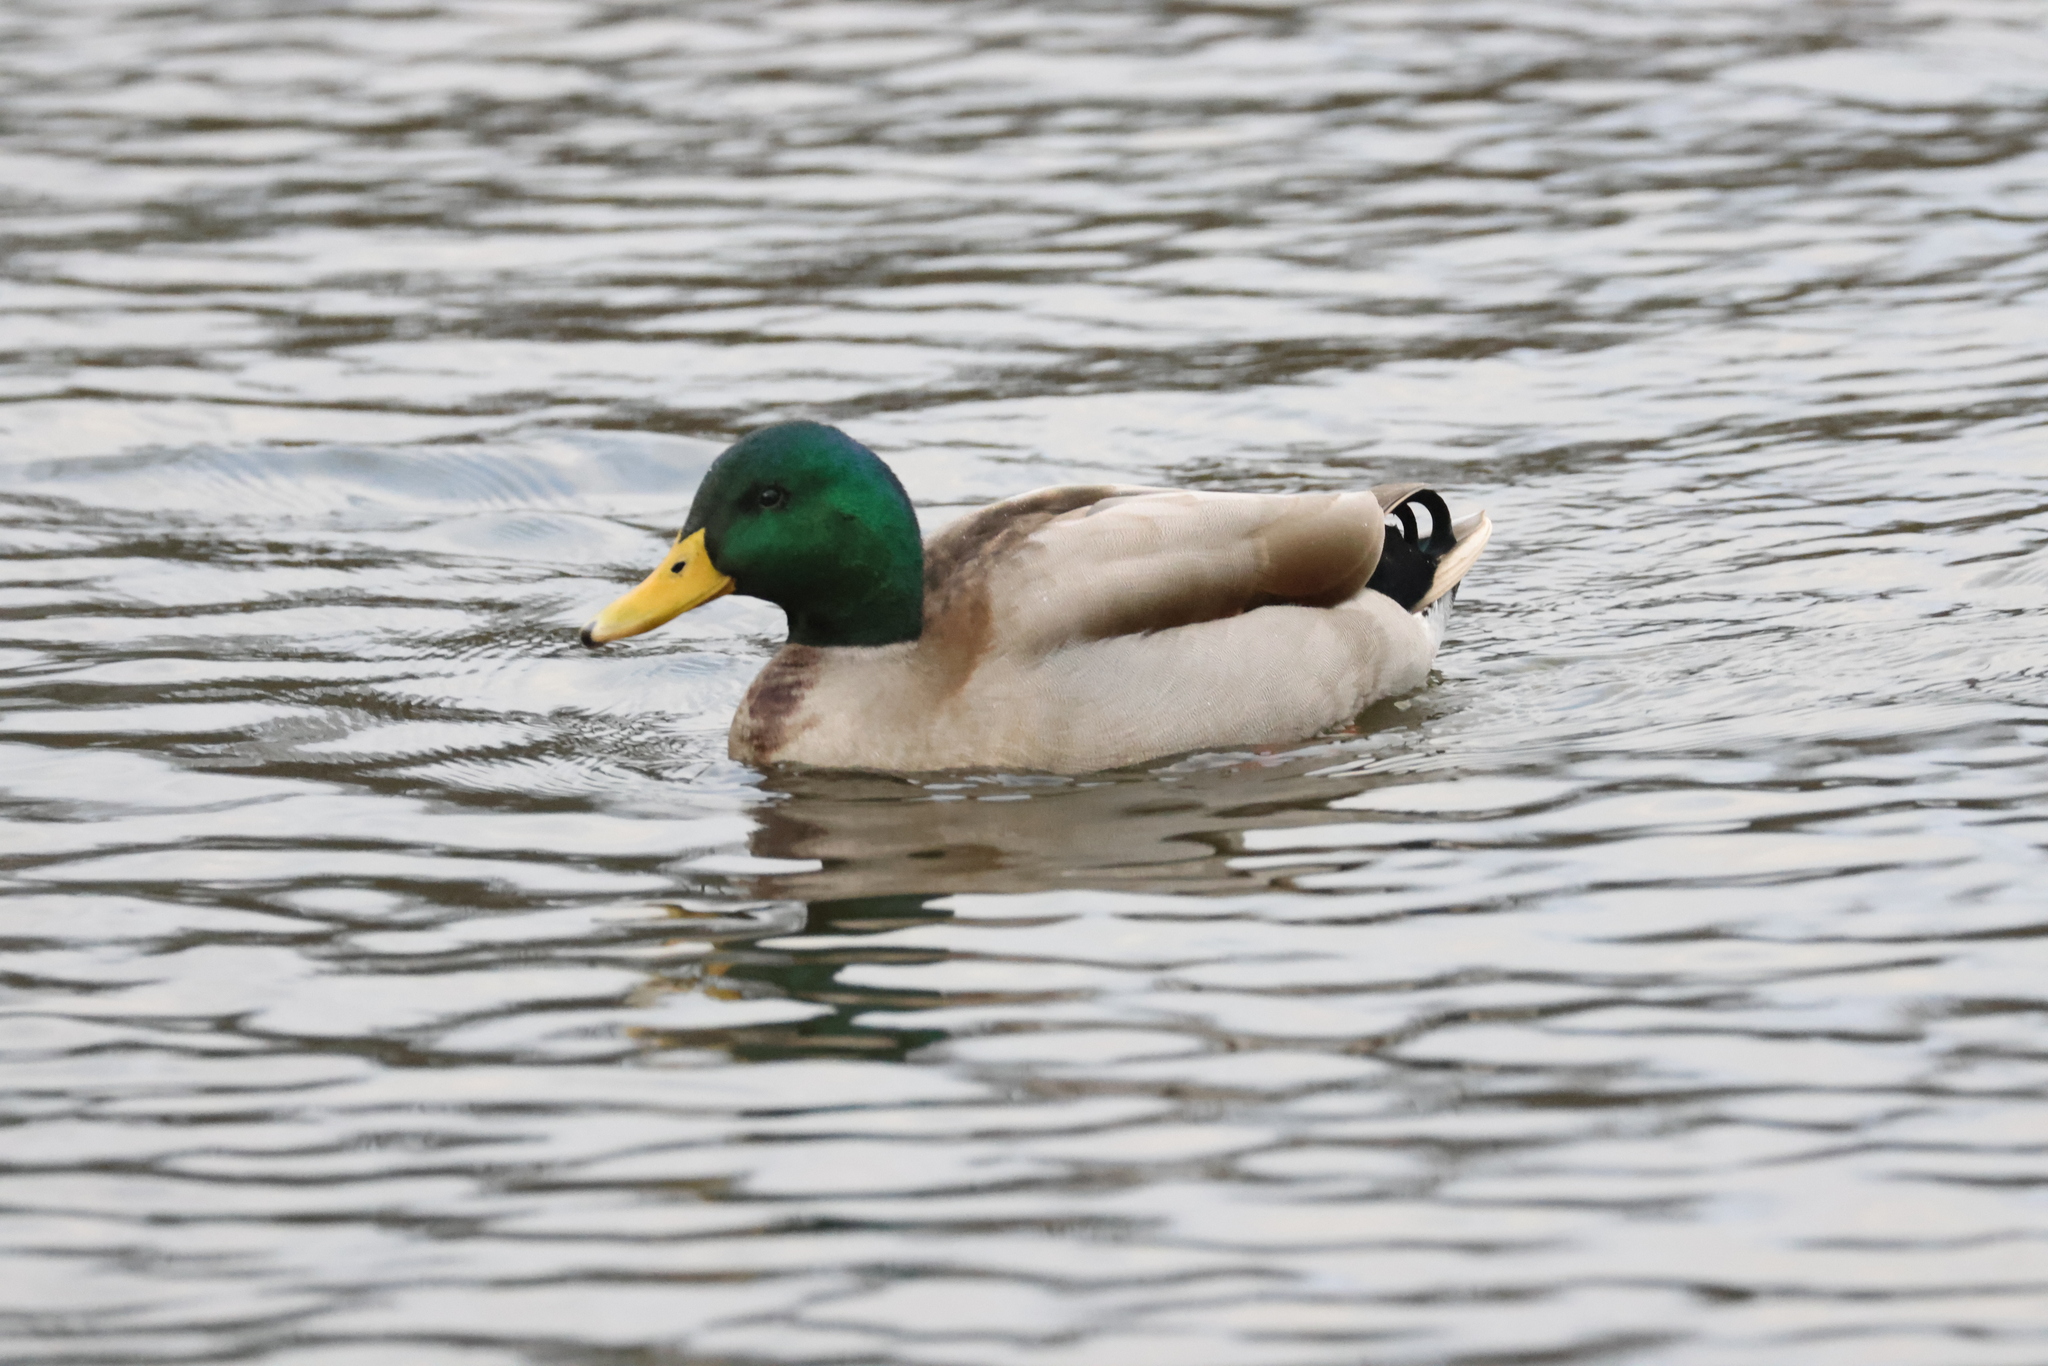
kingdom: Animalia
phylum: Chordata
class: Aves
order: Anseriformes
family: Anatidae
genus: Anas
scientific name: Anas platyrhynchos
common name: Mallard
